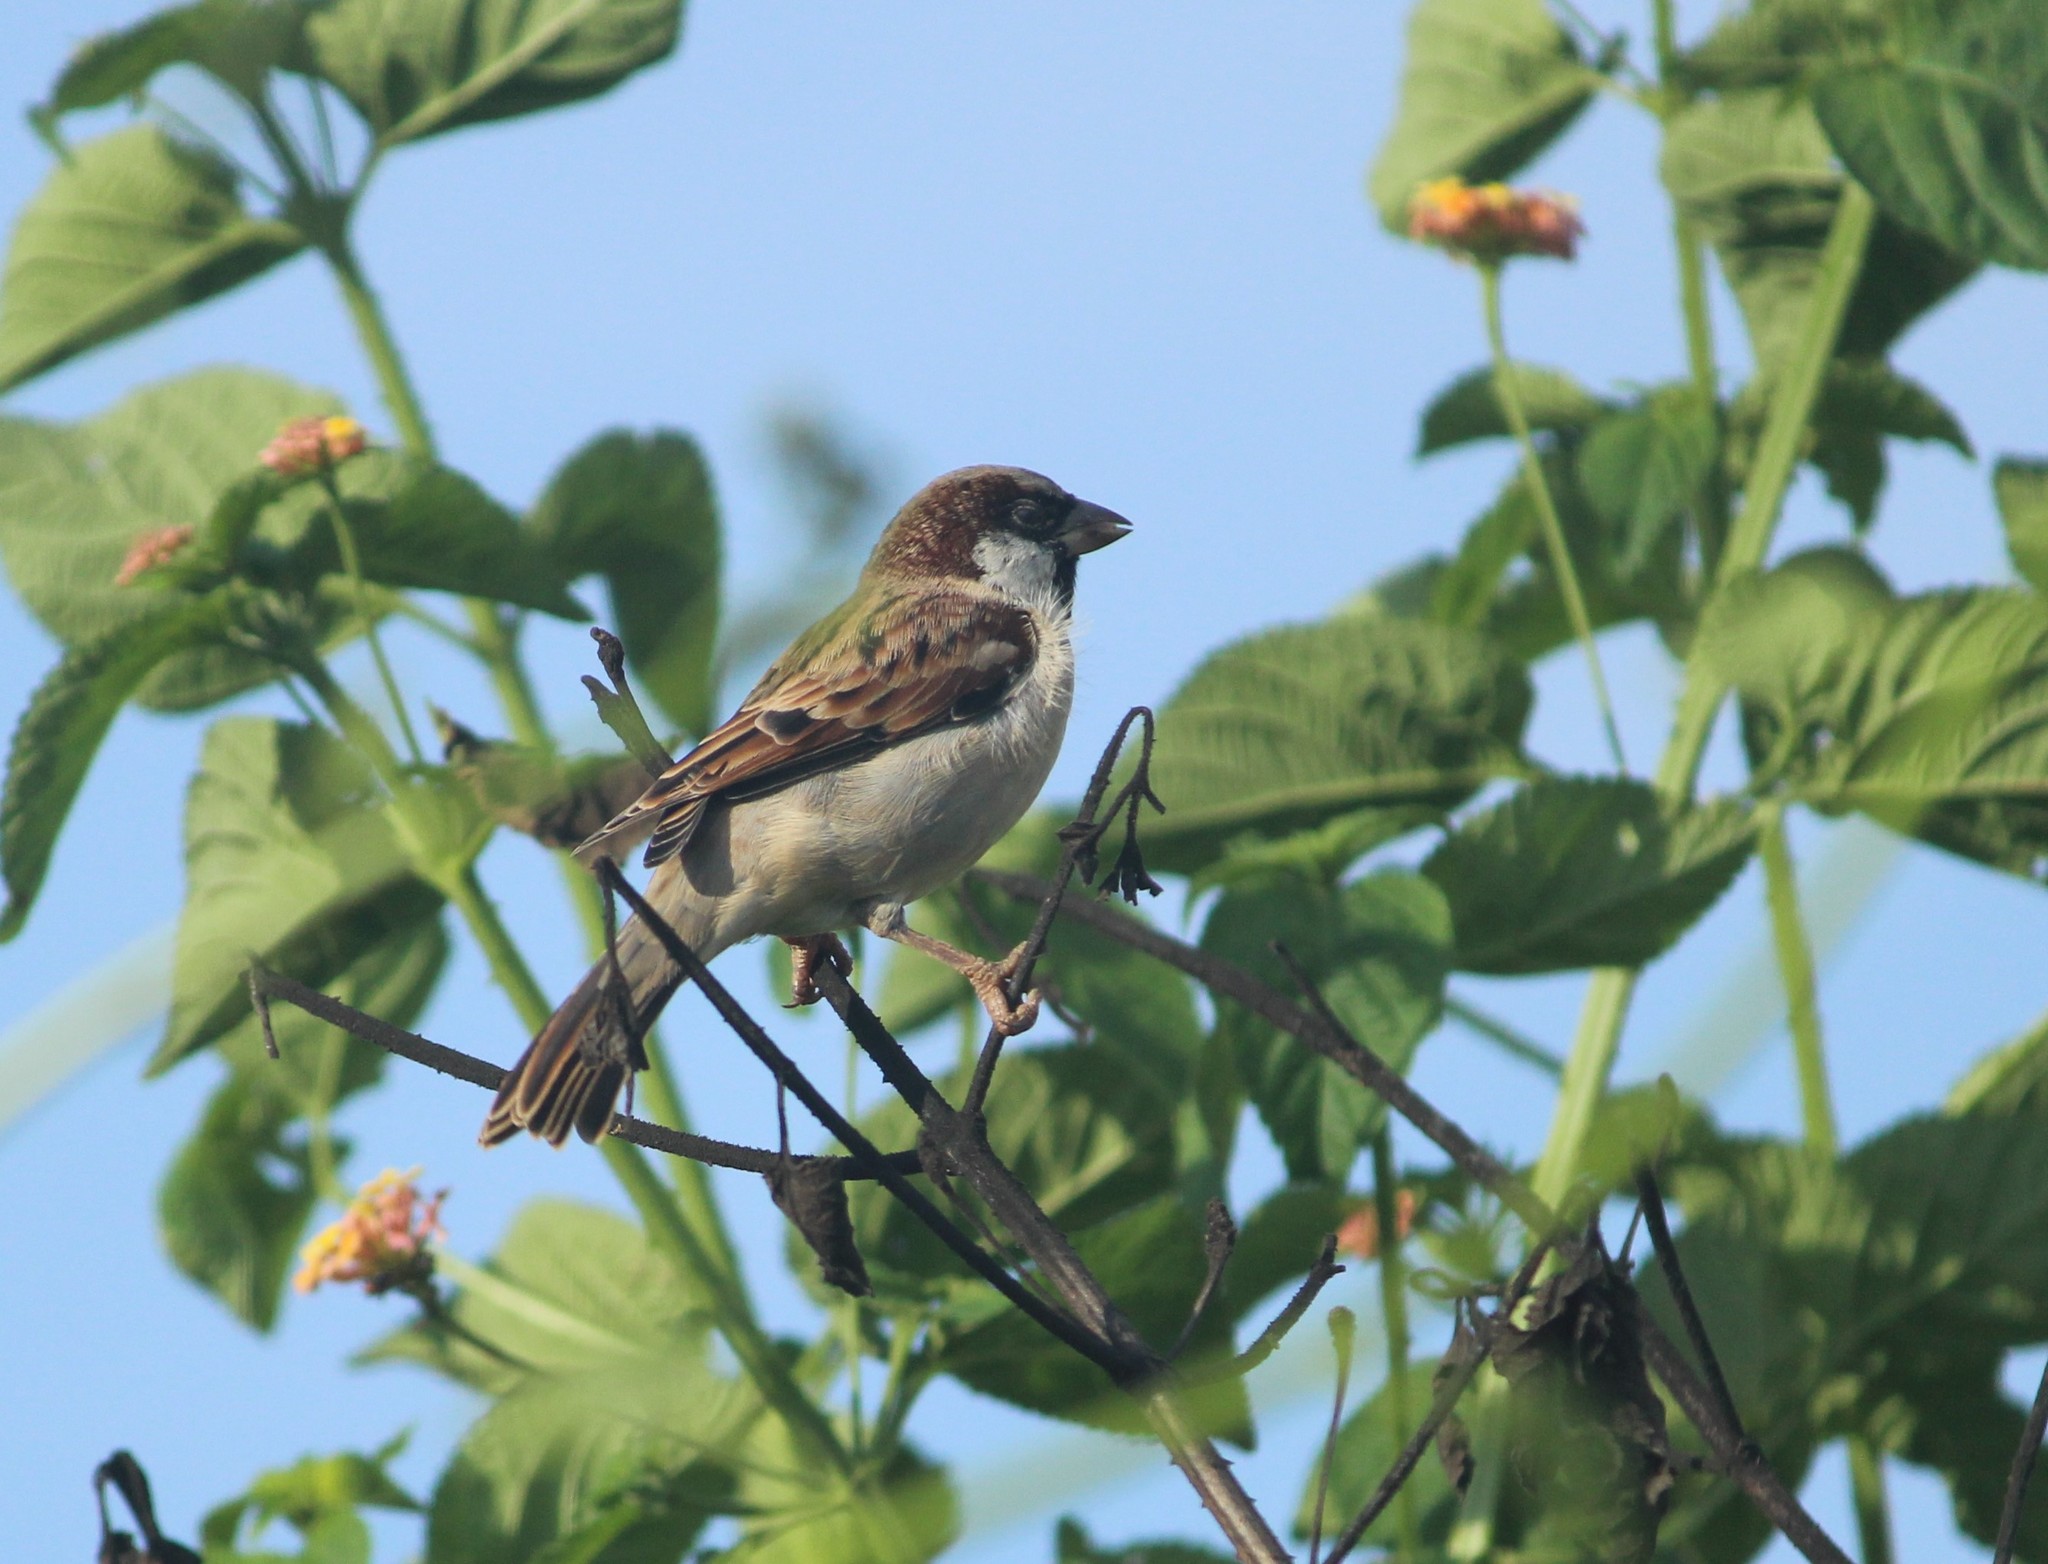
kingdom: Animalia
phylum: Chordata
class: Aves
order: Passeriformes
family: Passeridae
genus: Passer
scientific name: Passer domesticus
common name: House sparrow
